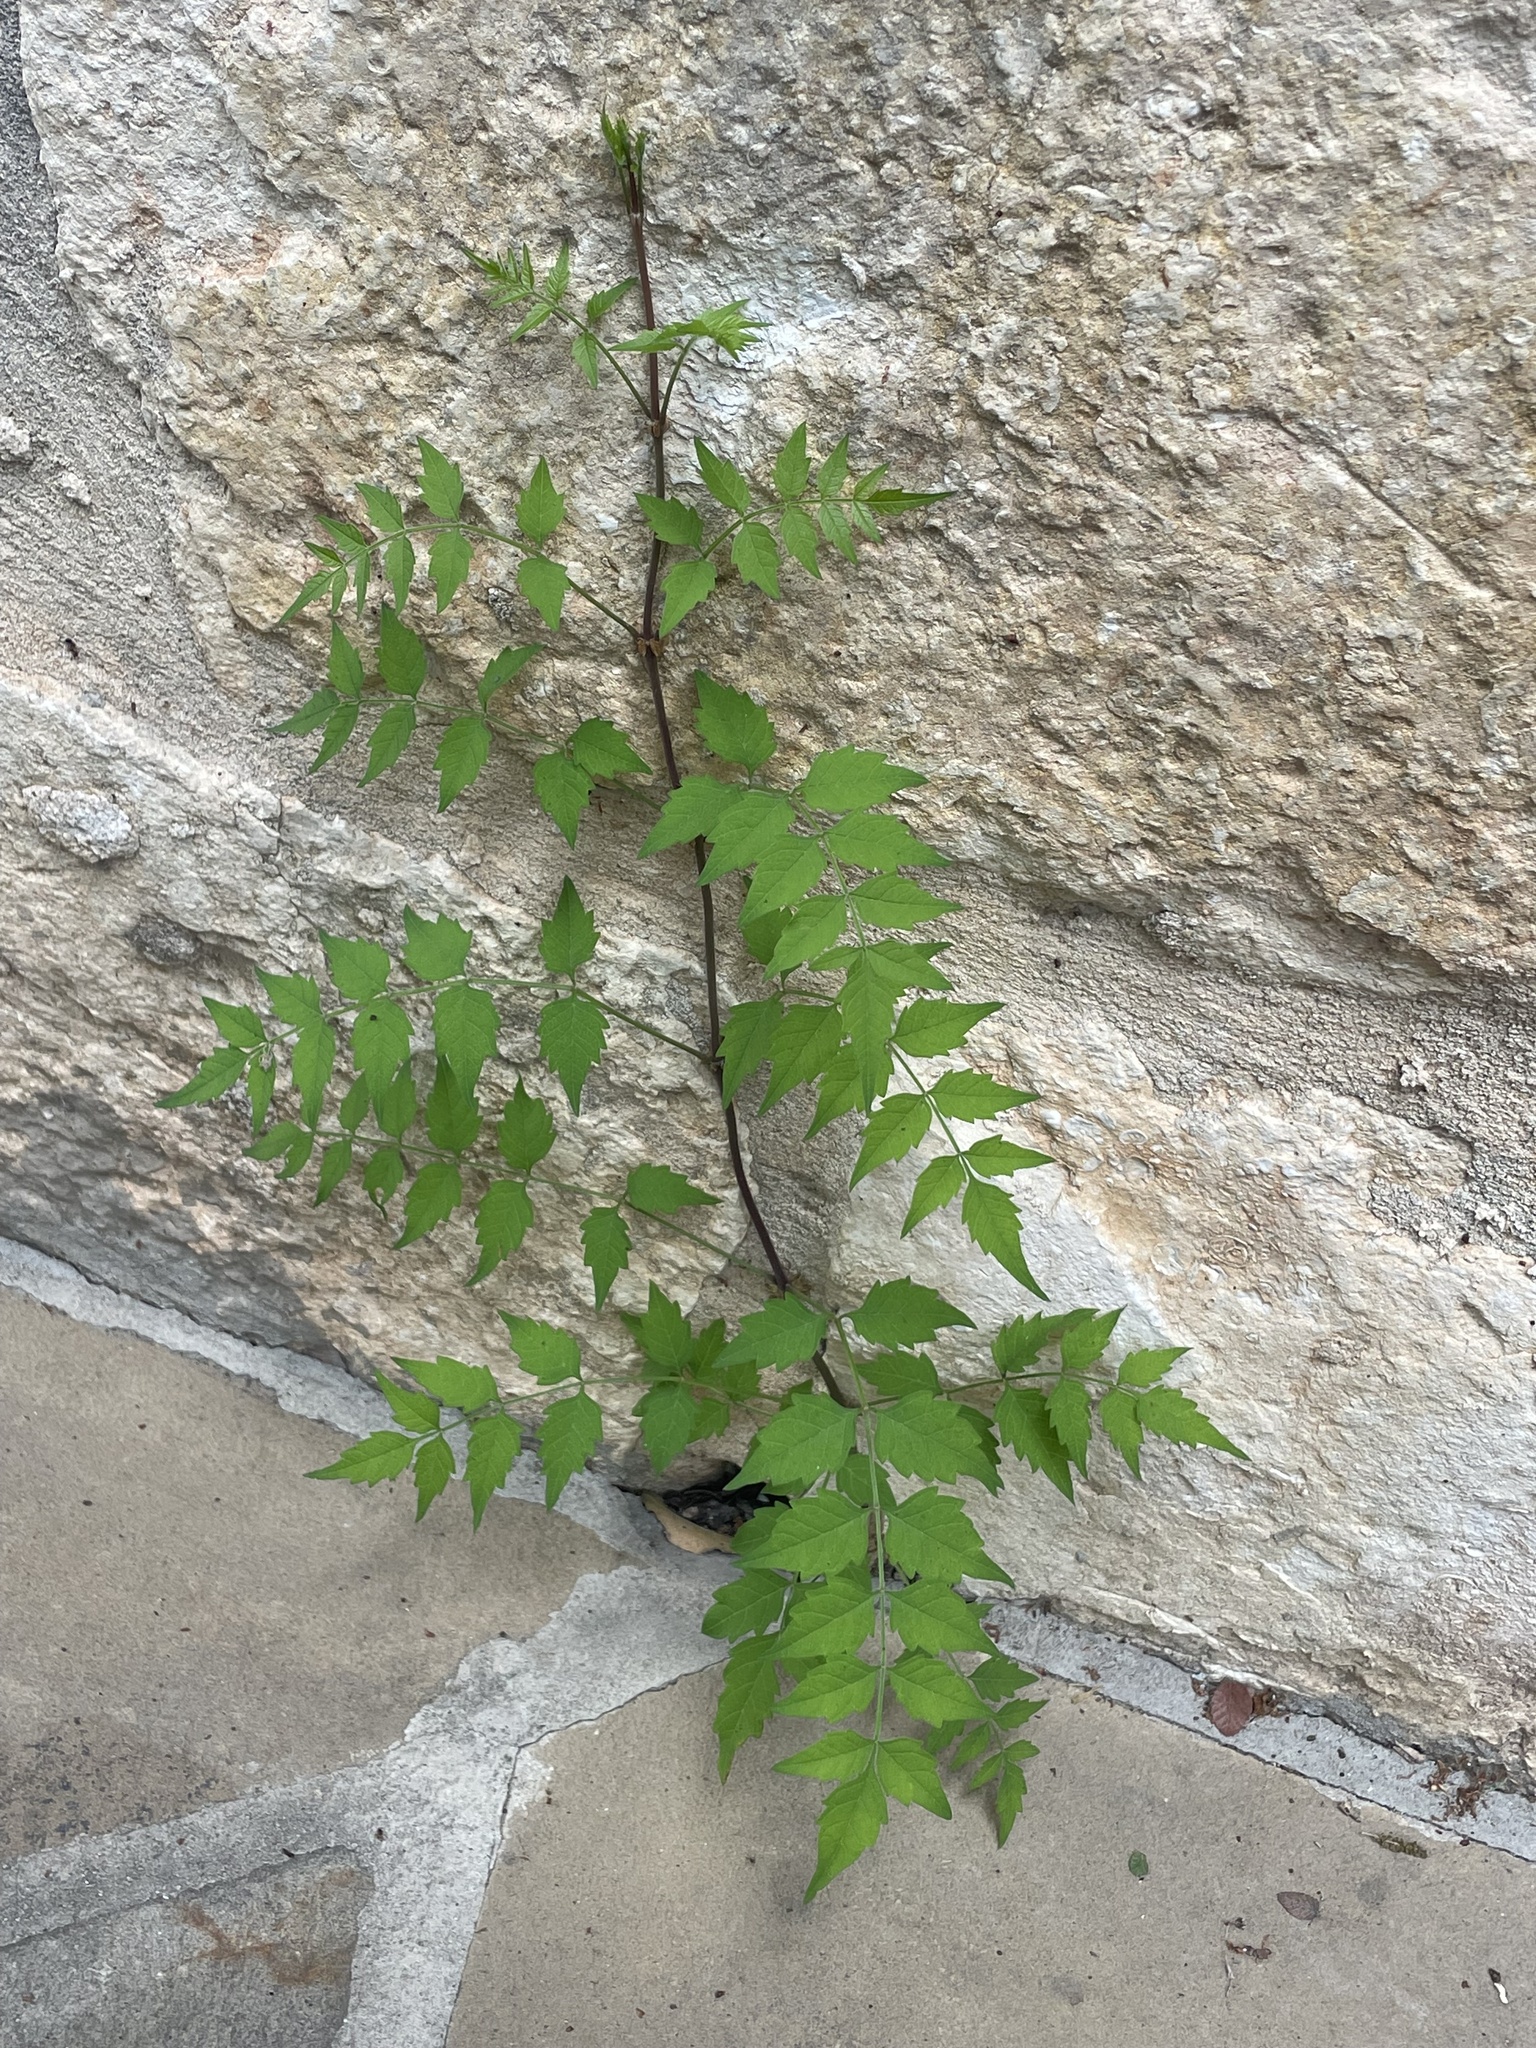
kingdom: Plantae
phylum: Tracheophyta
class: Magnoliopsida
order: Lamiales
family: Bignoniaceae
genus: Campsis
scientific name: Campsis radicans
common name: Trumpet-creeper
